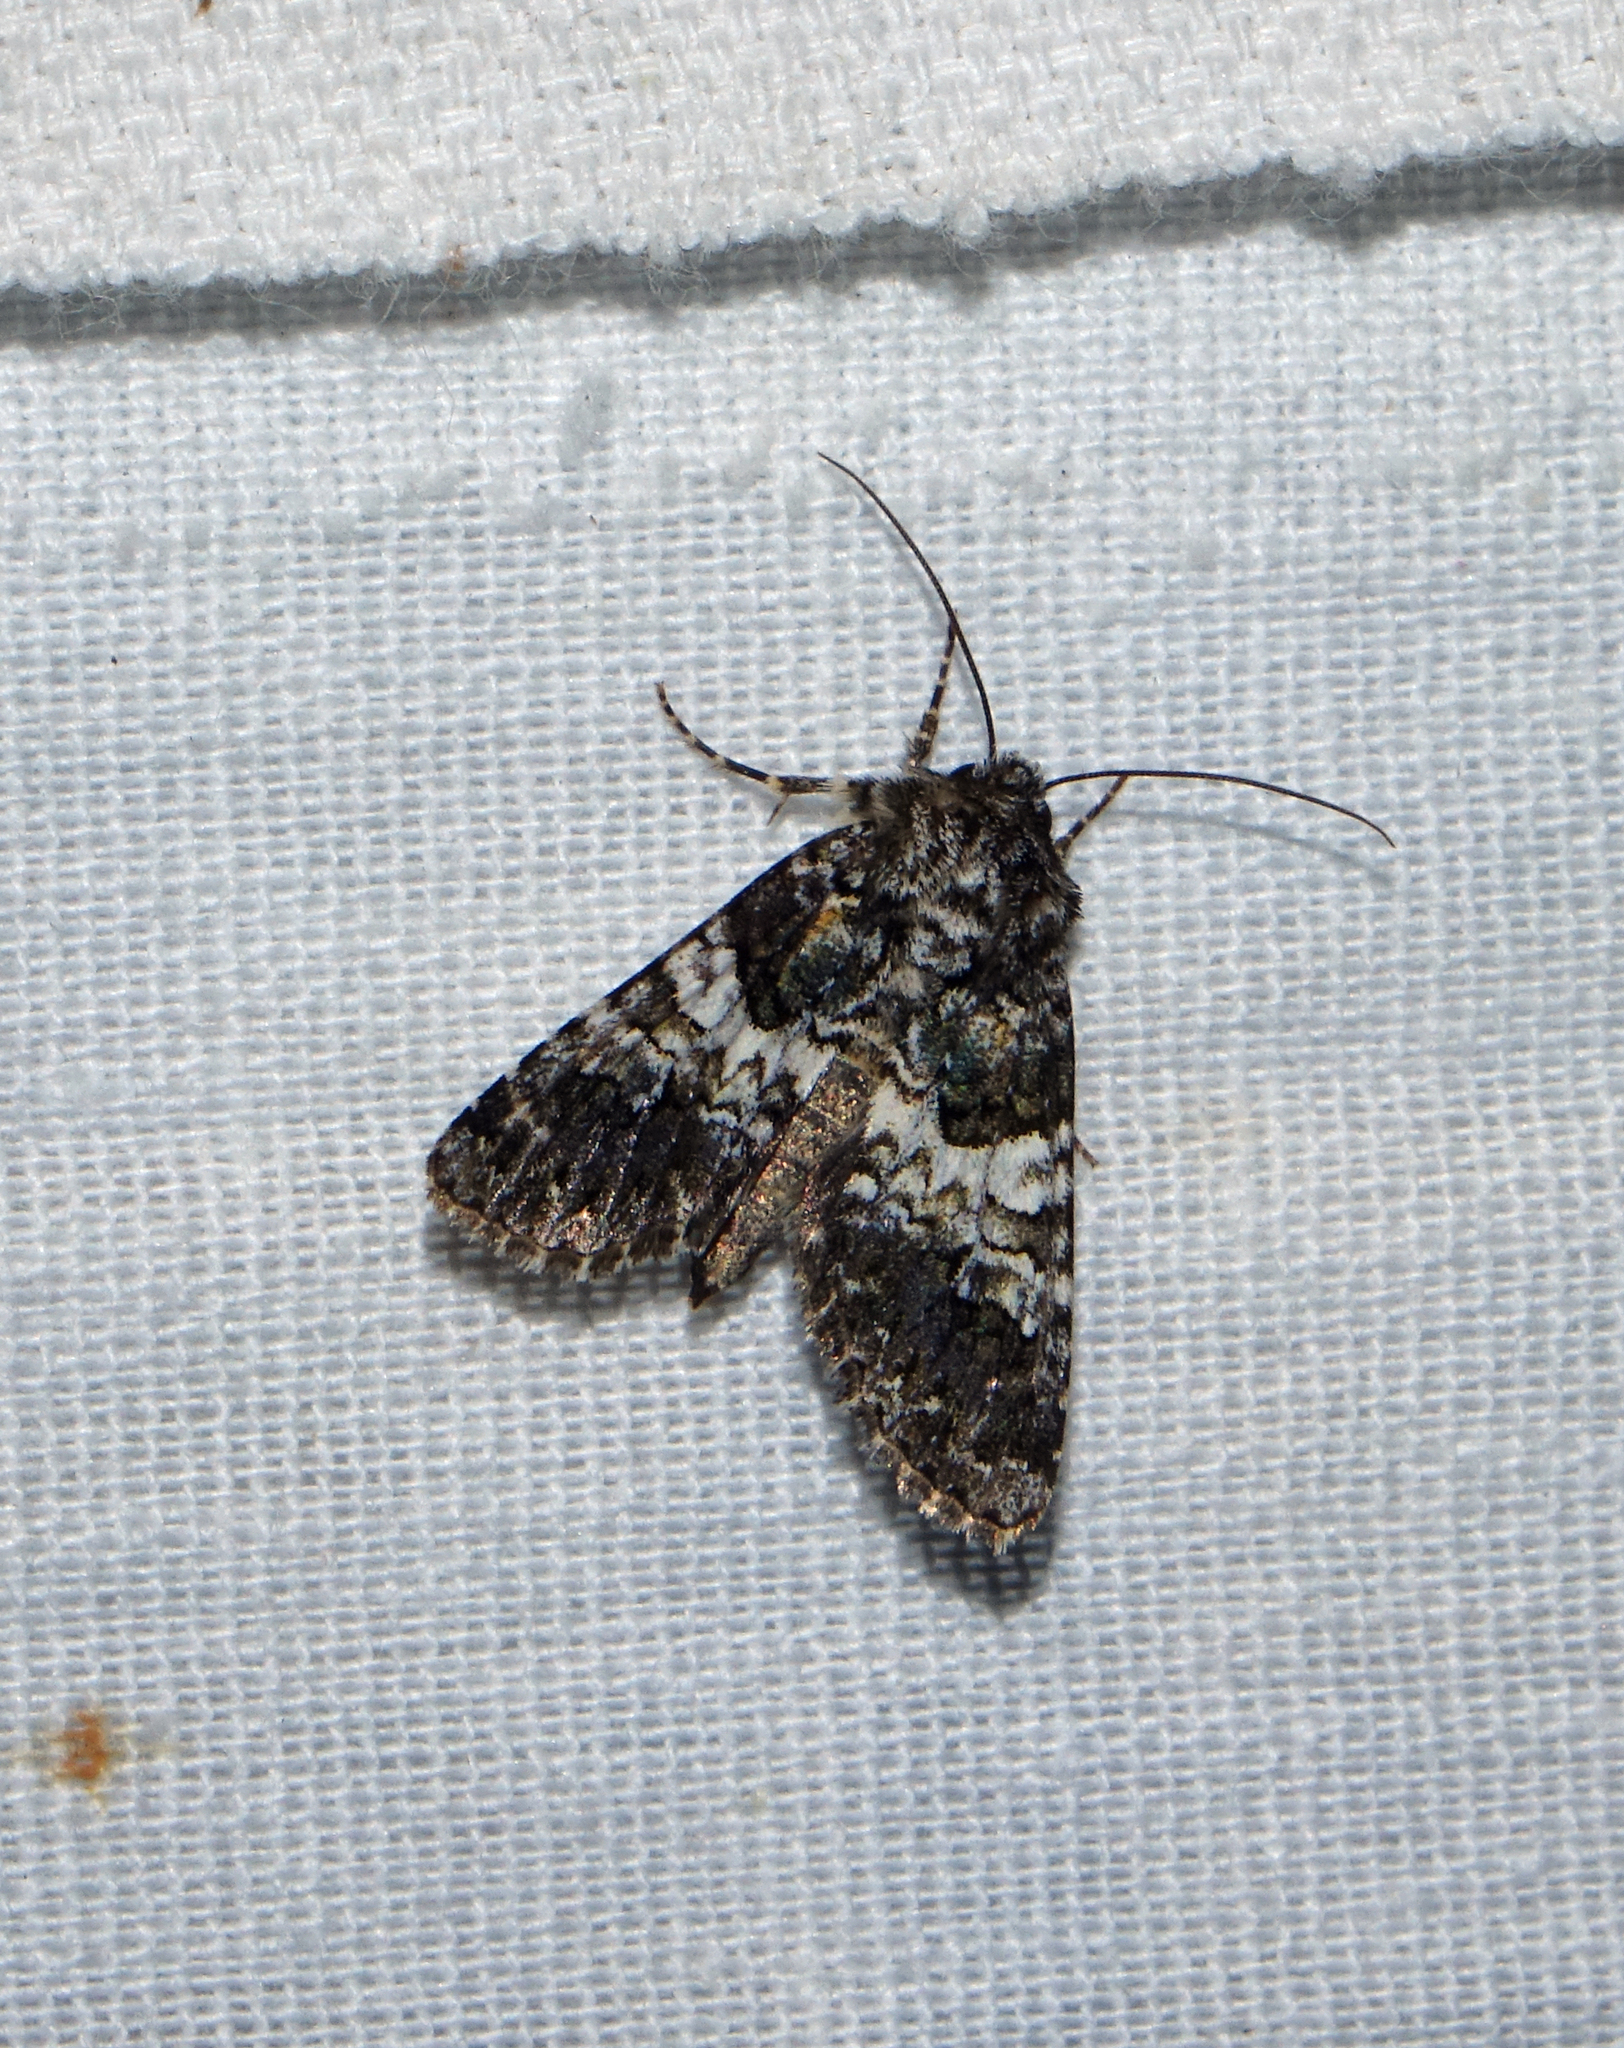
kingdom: Animalia
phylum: Arthropoda
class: Insecta
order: Lepidoptera
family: Noctuidae
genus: Hadena
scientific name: Hadena compta
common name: Varied coronet
